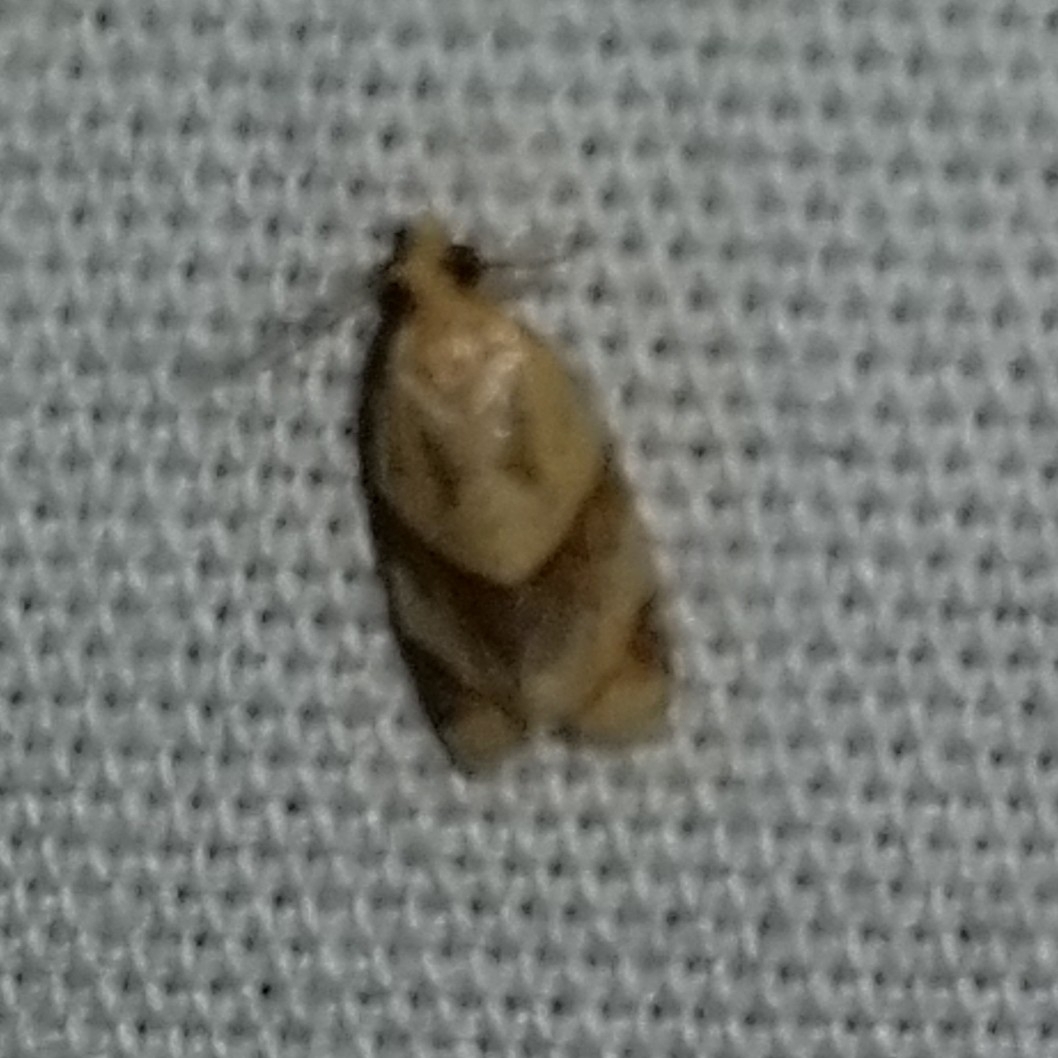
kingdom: Animalia
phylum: Arthropoda
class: Insecta
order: Lepidoptera
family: Tortricidae
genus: Clepsis
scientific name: Clepsis peritana
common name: Garden tortrix
